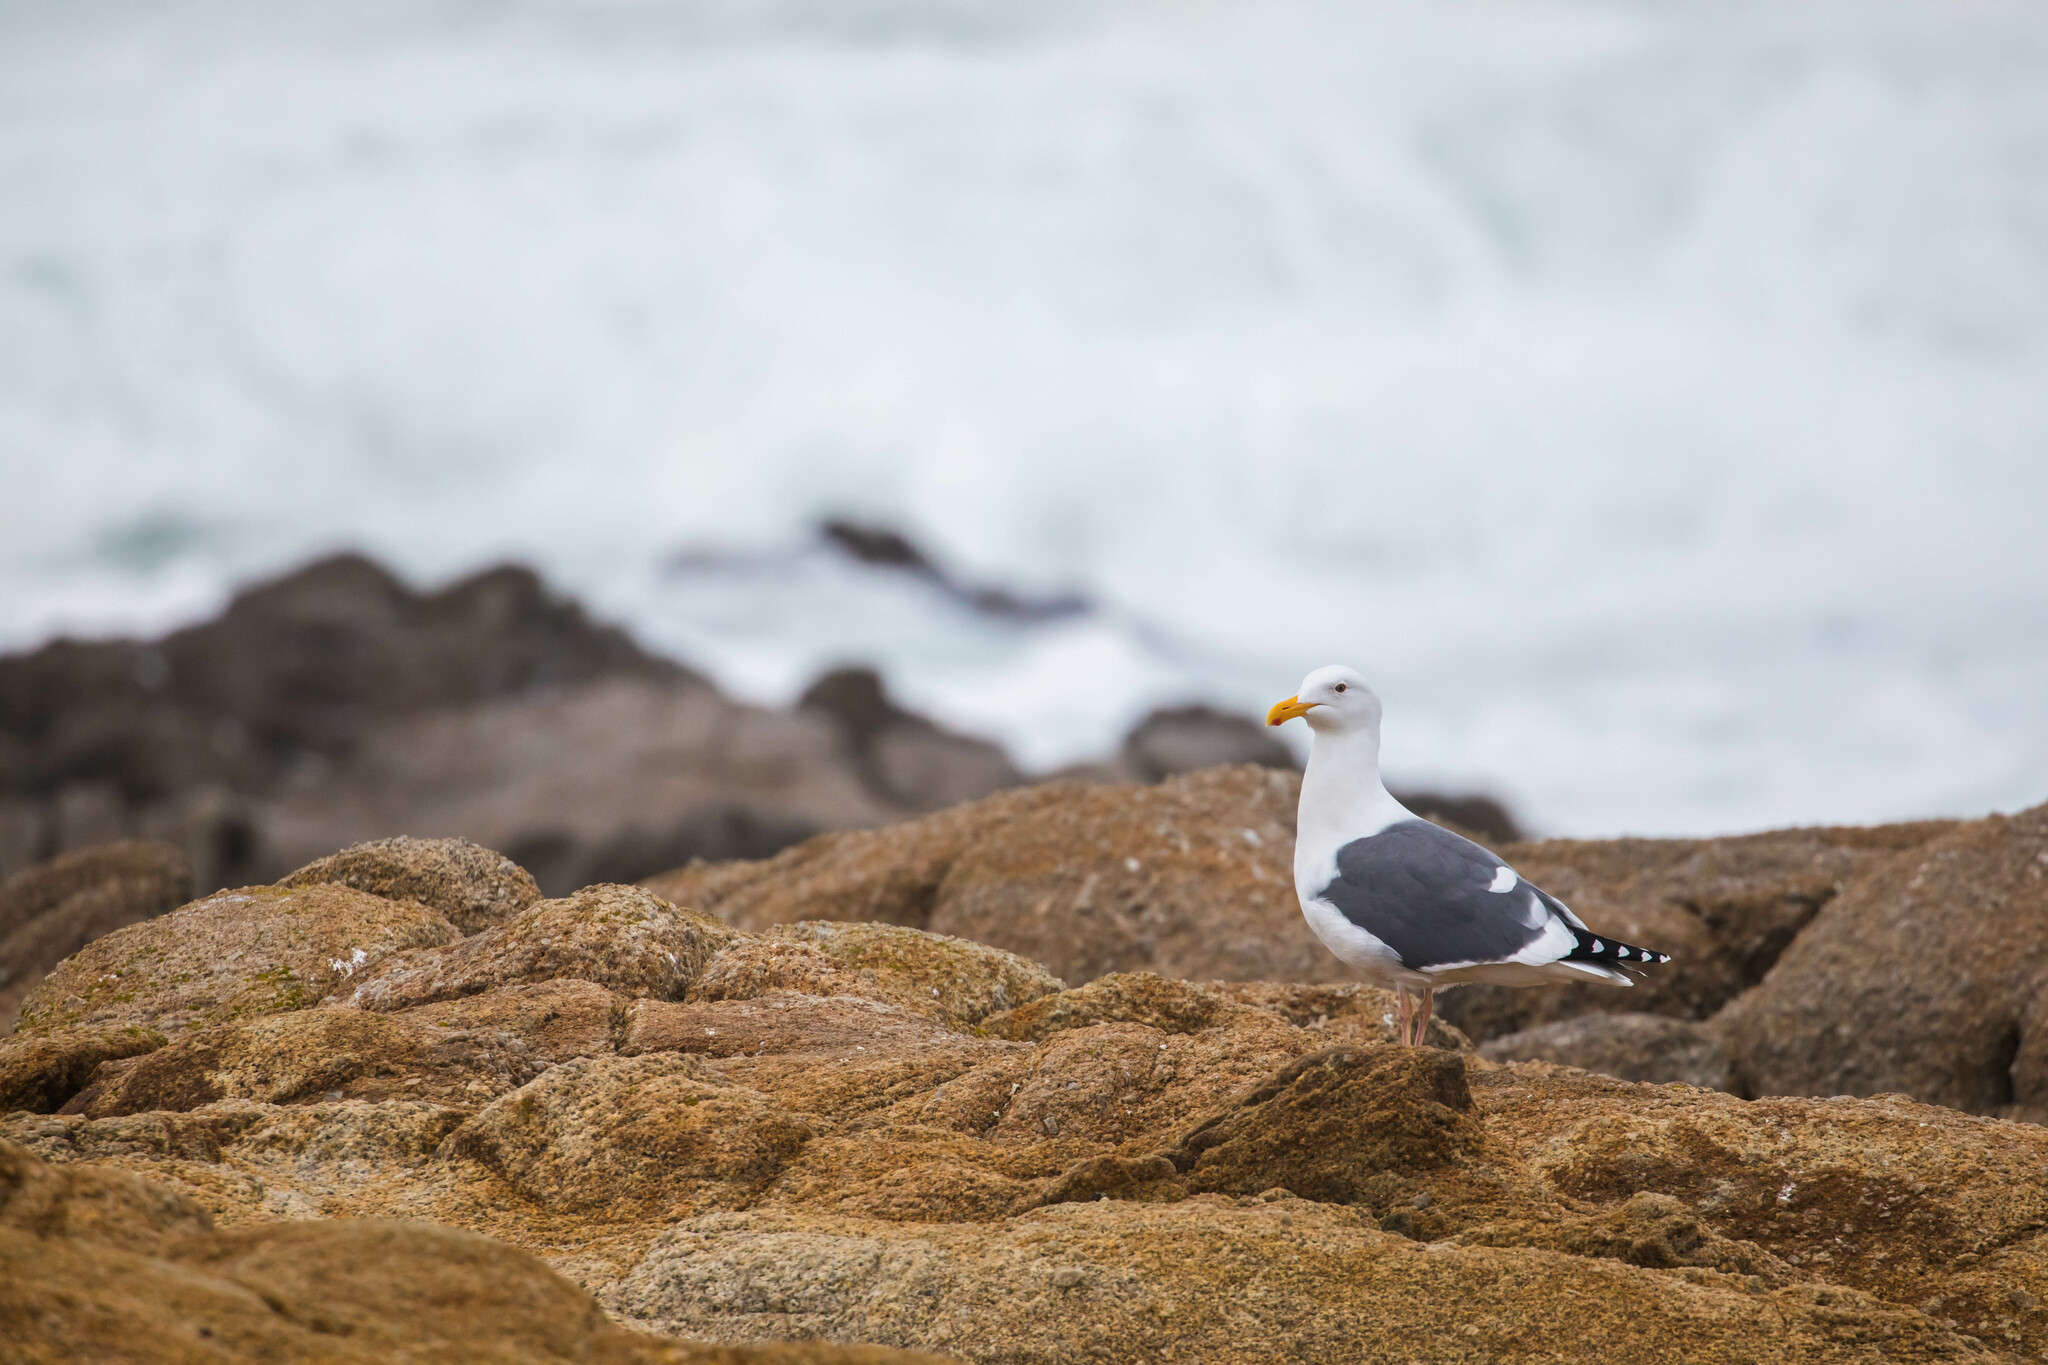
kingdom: Animalia
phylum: Chordata
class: Aves
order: Charadriiformes
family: Laridae
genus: Larus
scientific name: Larus occidentalis
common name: Western gull
